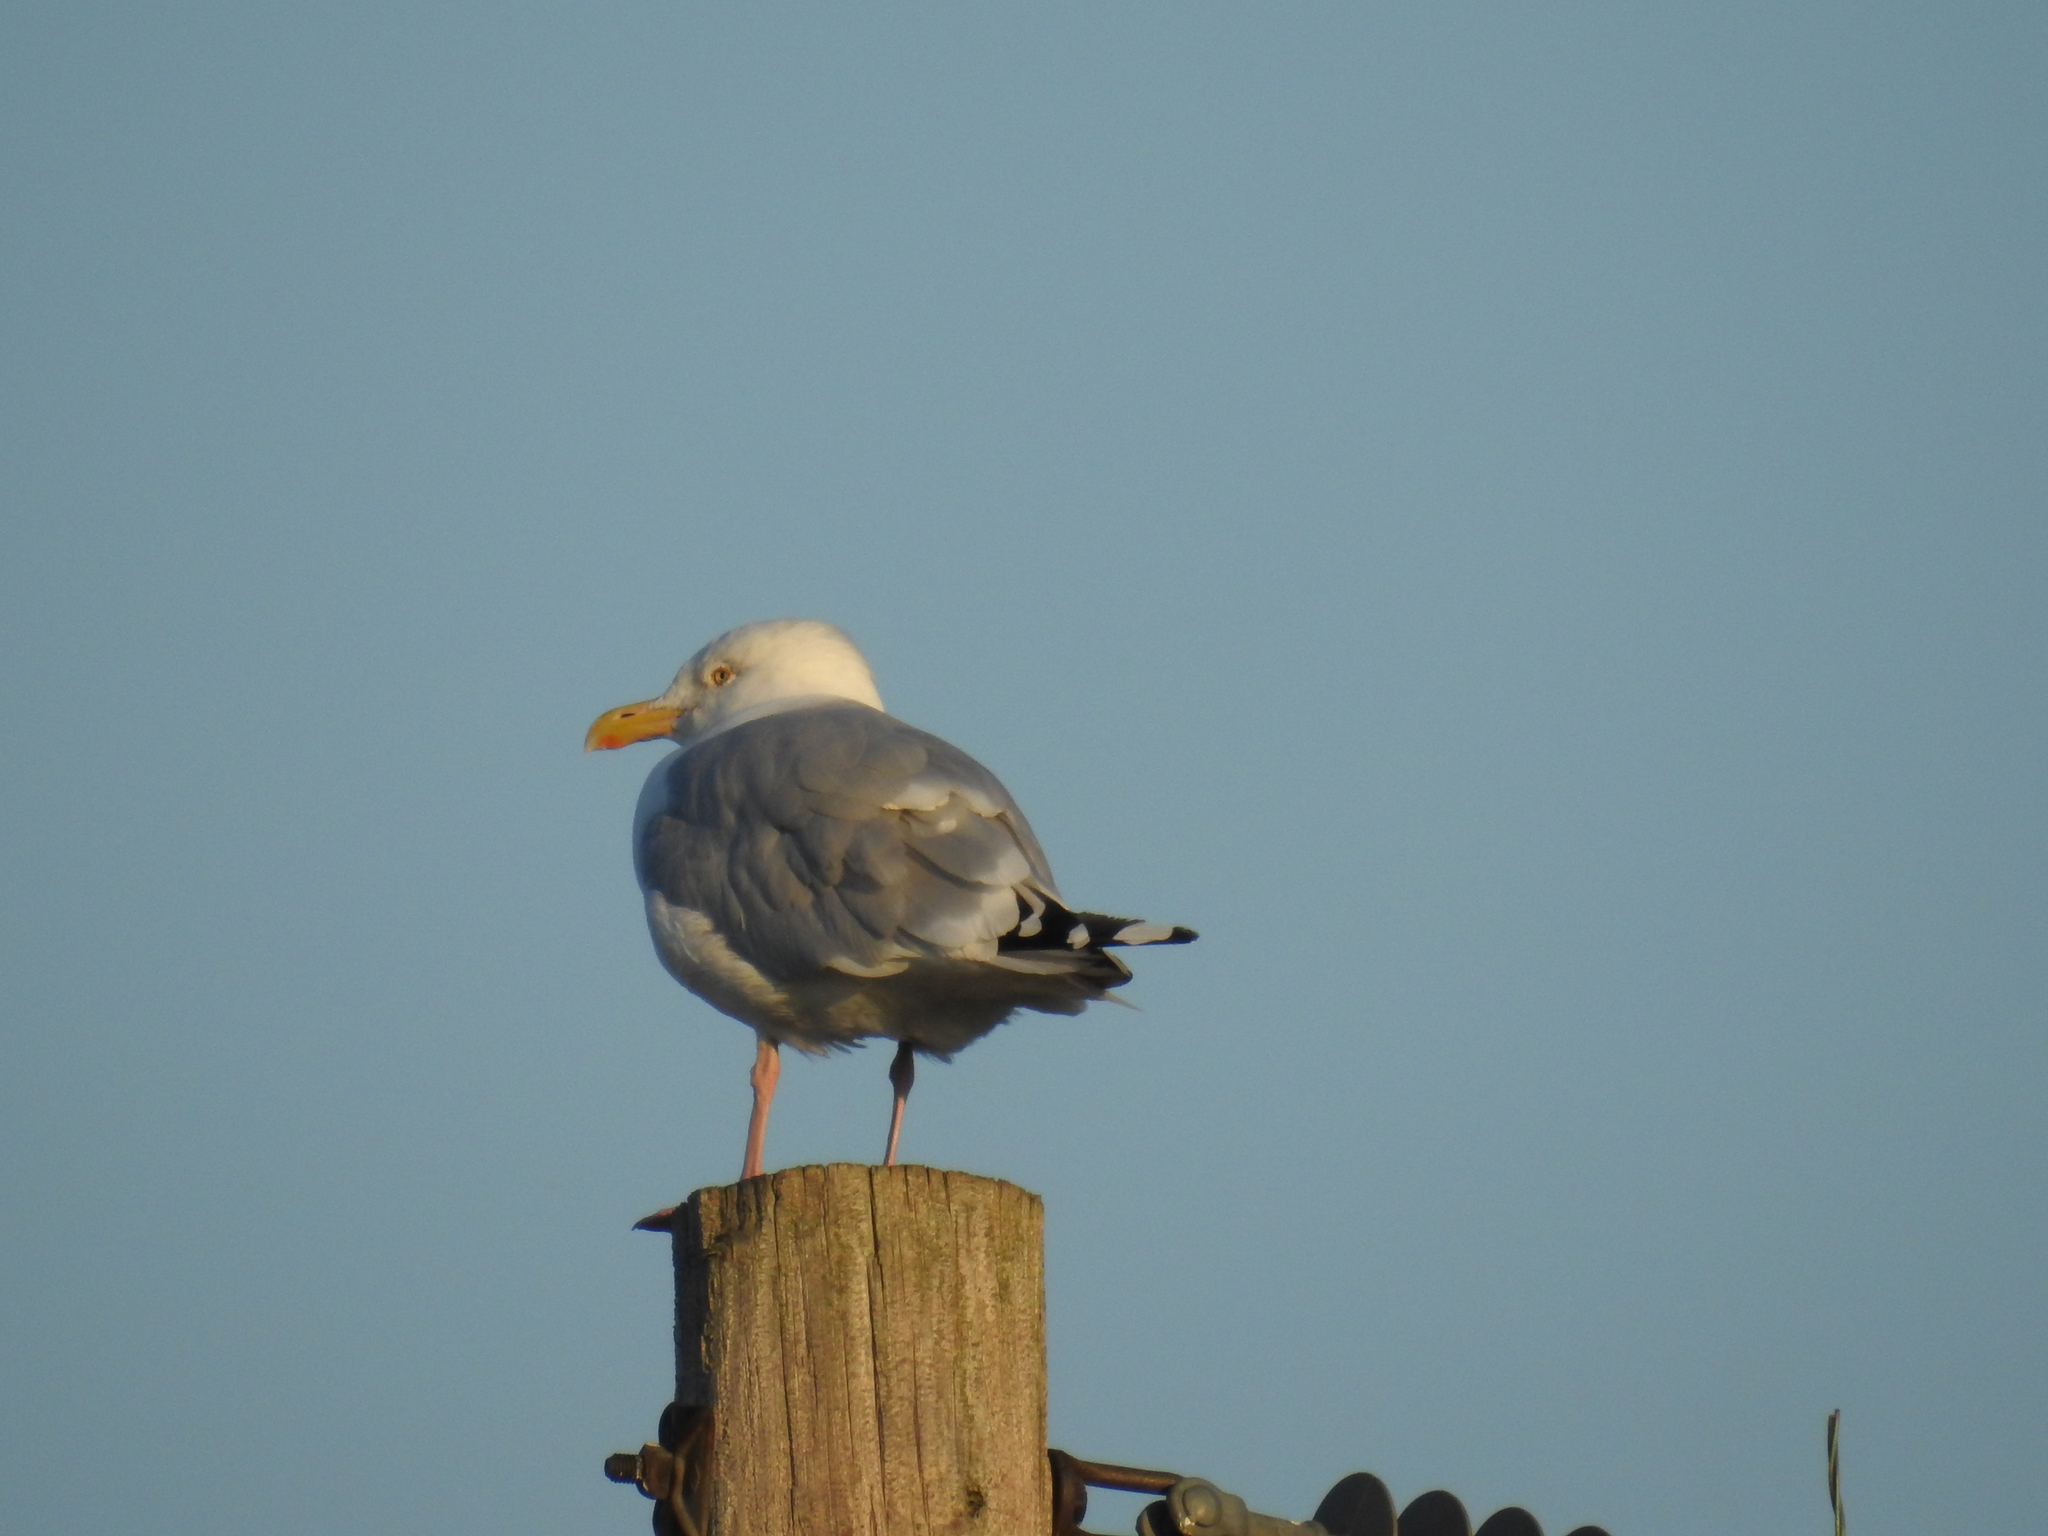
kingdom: Animalia
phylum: Chordata
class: Aves
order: Charadriiformes
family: Laridae
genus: Larus
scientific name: Larus argentatus
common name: Herring gull
